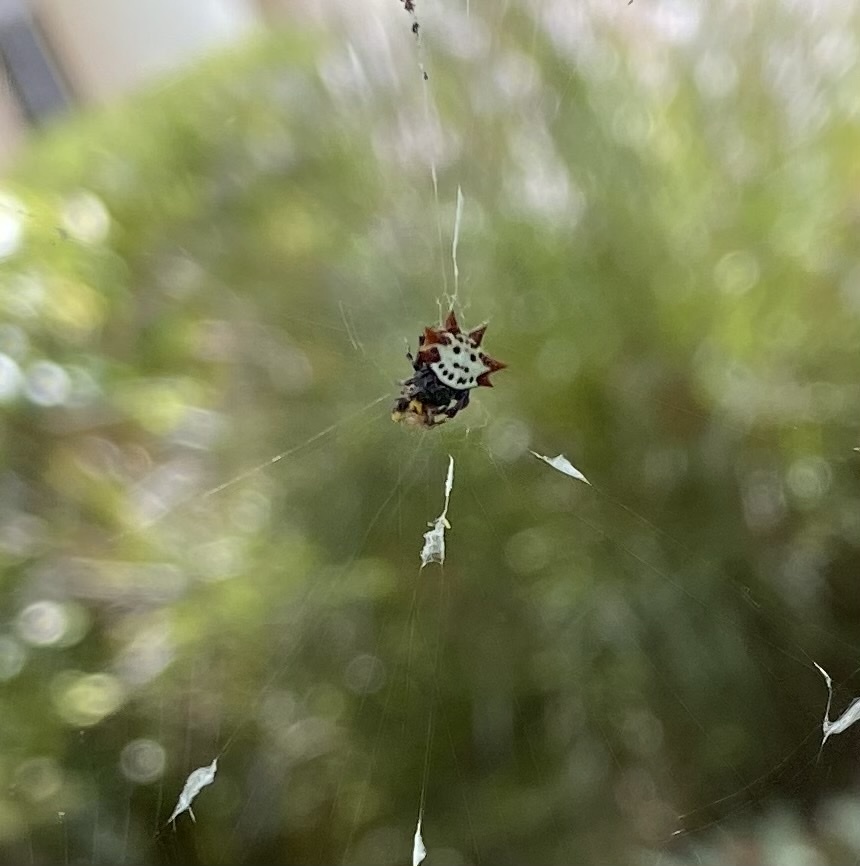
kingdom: Animalia
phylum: Arthropoda
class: Arachnida
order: Araneae
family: Araneidae
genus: Gasteracantha
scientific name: Gasteracantha cancriformis
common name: Orb weavers
